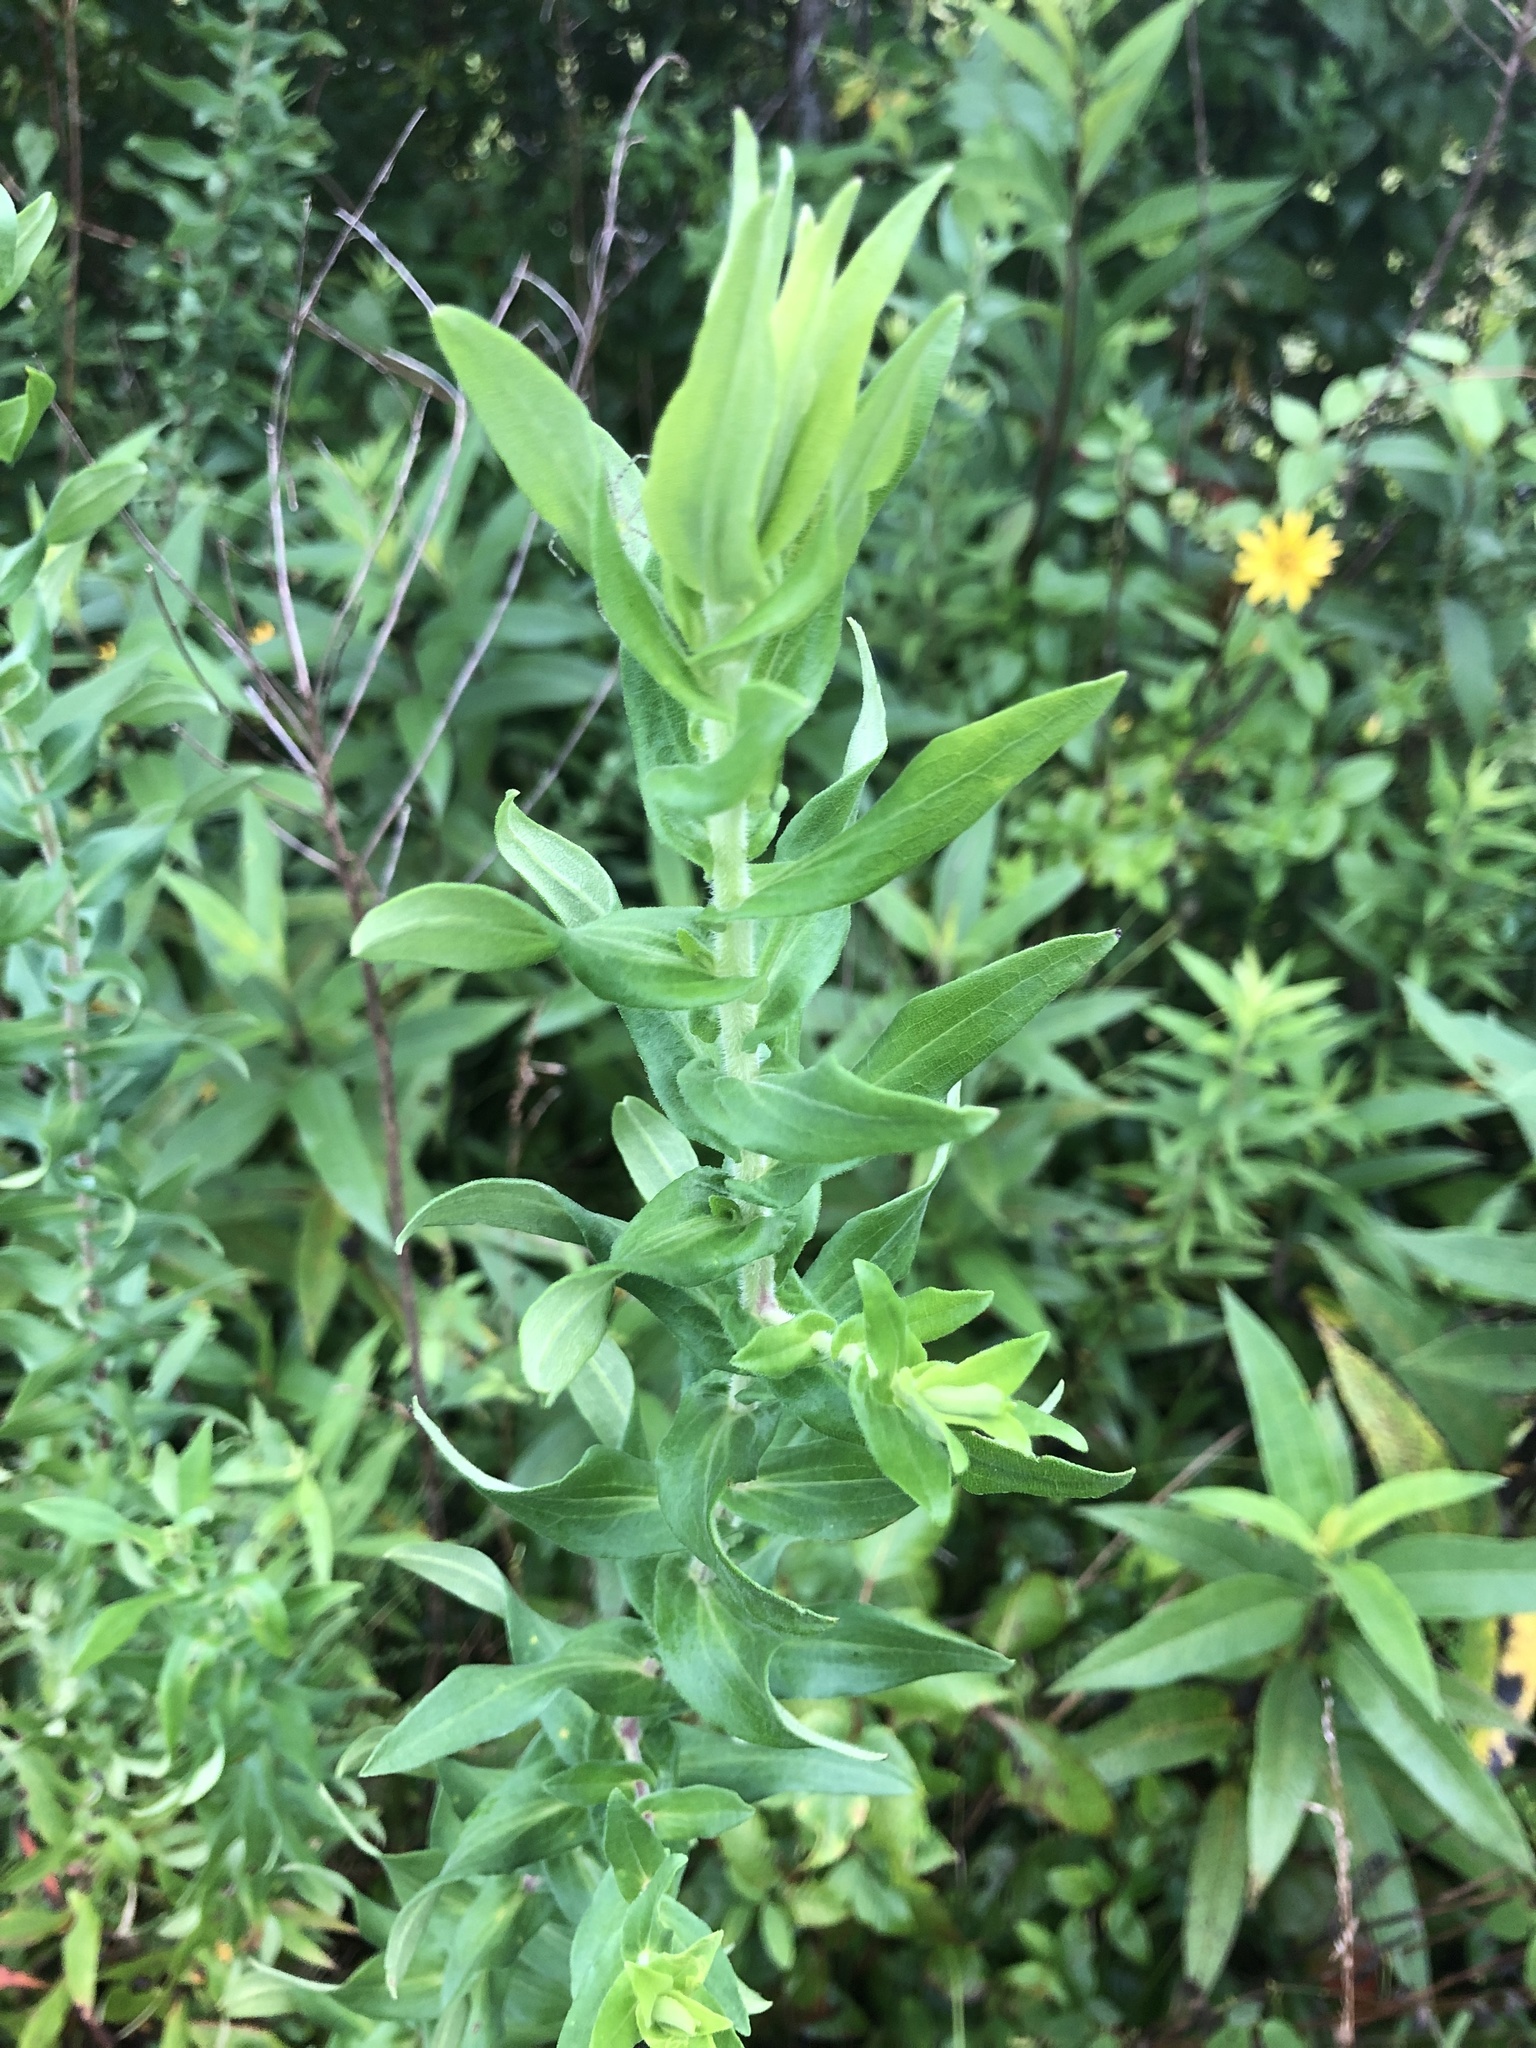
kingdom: Plantae
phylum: Tracheophyta
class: Magnoliopsida
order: Asterales
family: Asteraceae
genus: Symphyotrichum
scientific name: Symphyotrichum novae-angliae
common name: Michaelmas daisy
